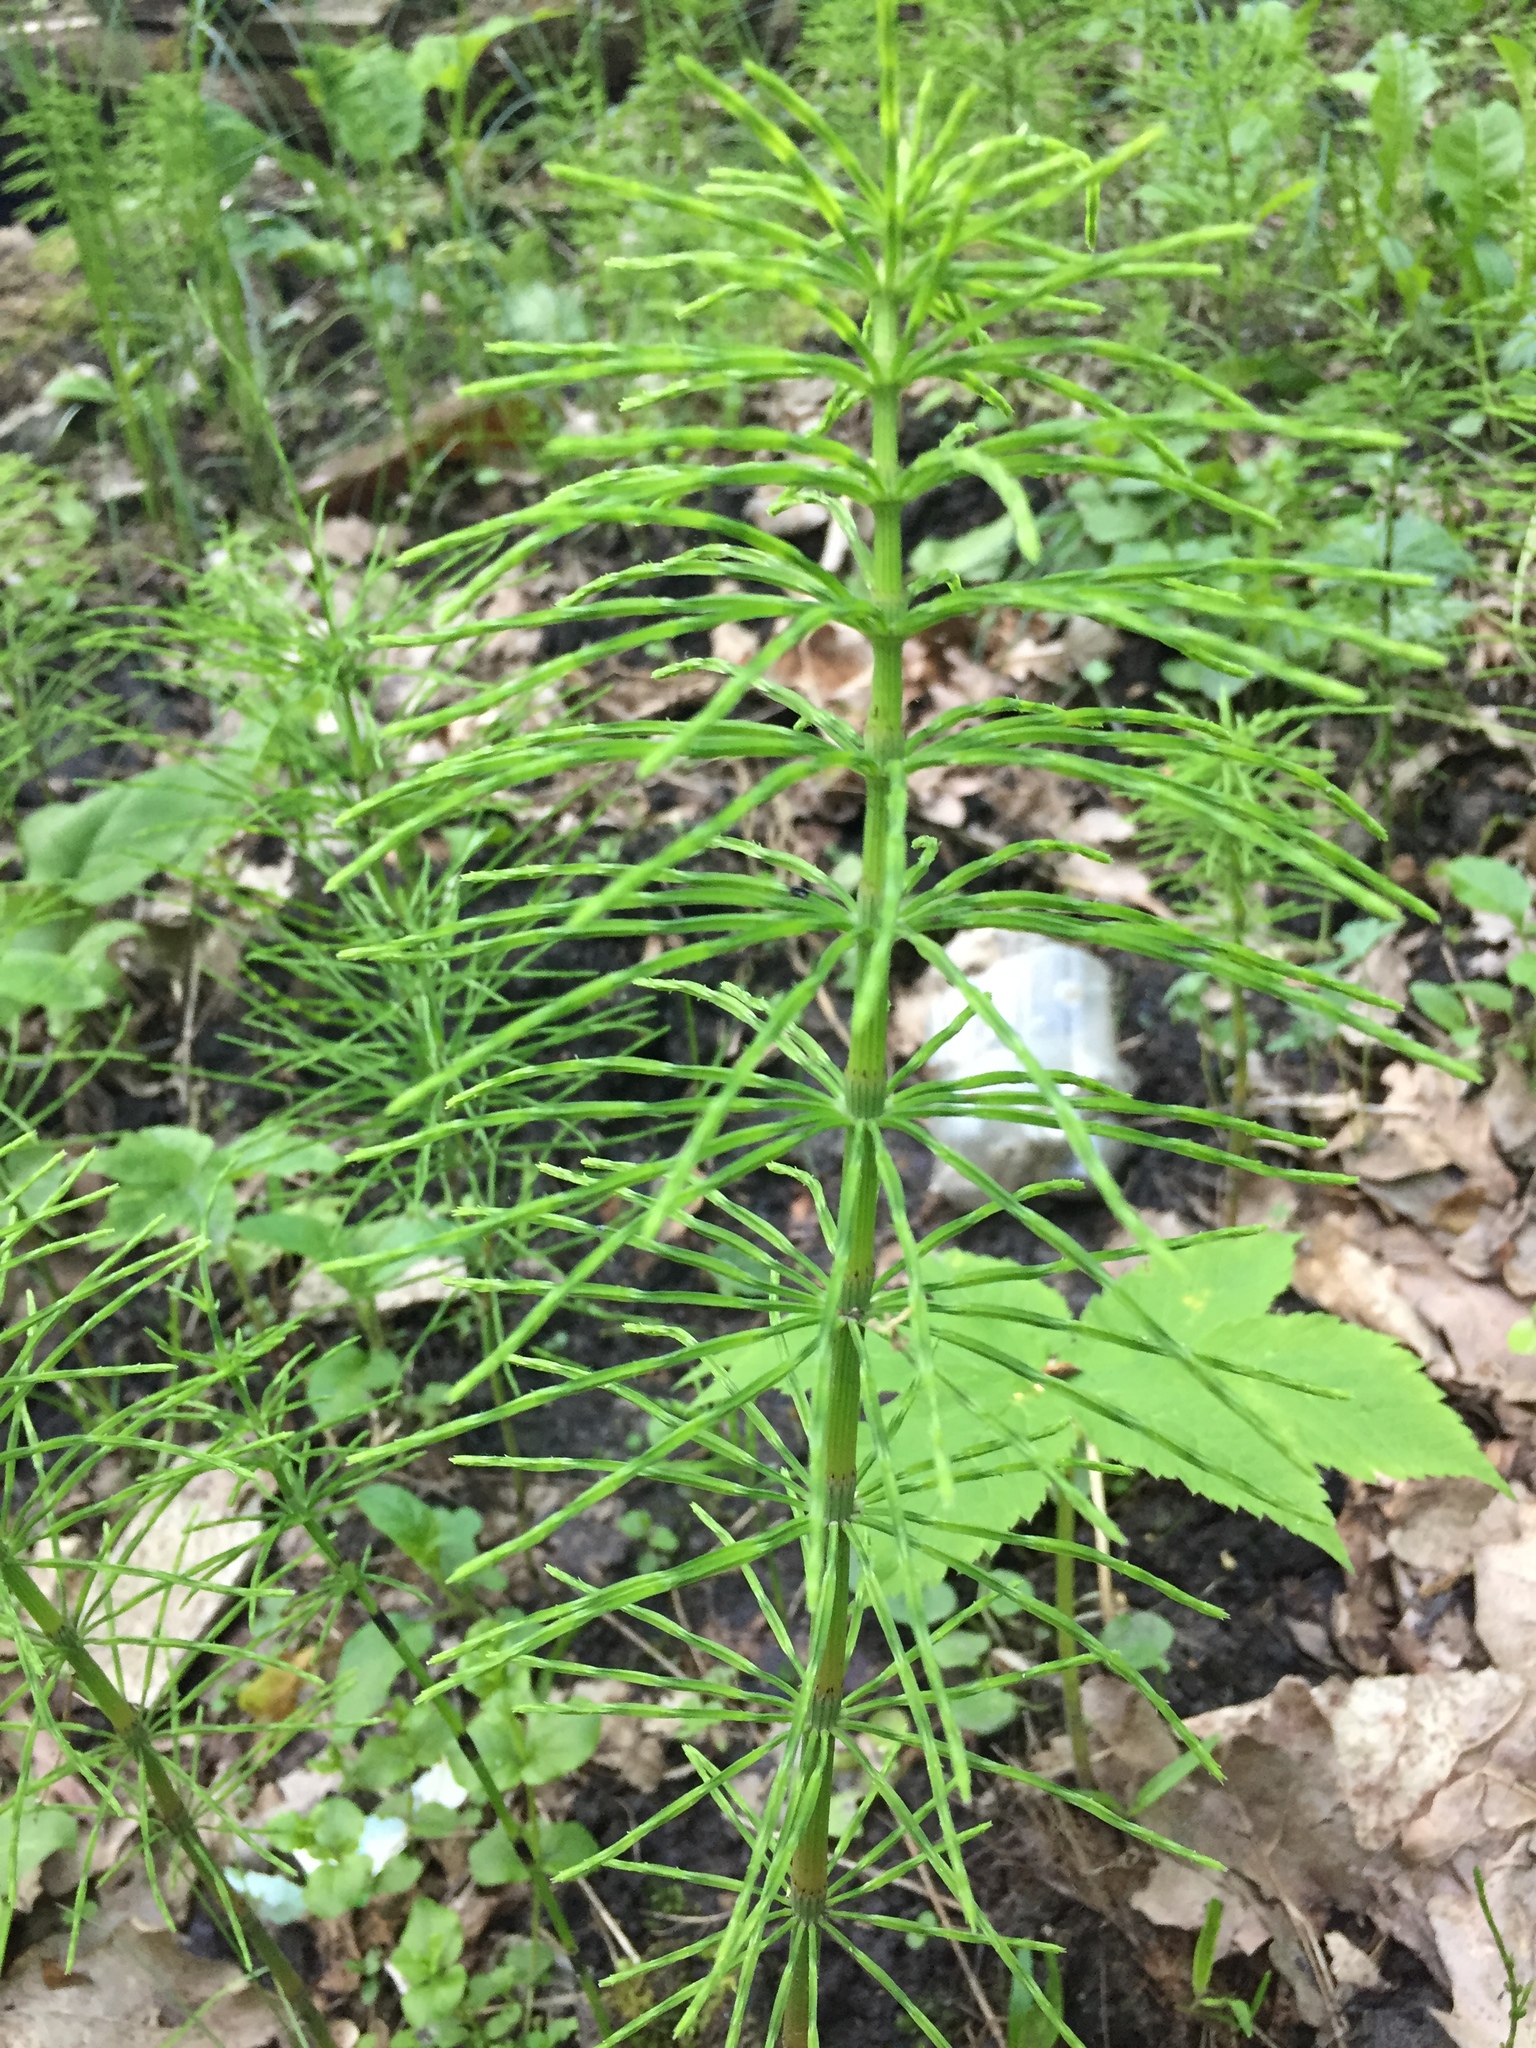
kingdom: Plantae
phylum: Tracheophyta
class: Polypodiopsida
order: Equisetales
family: Equisetaceae
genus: Equisetum
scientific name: Equisetum arvense
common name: Field horsetail
